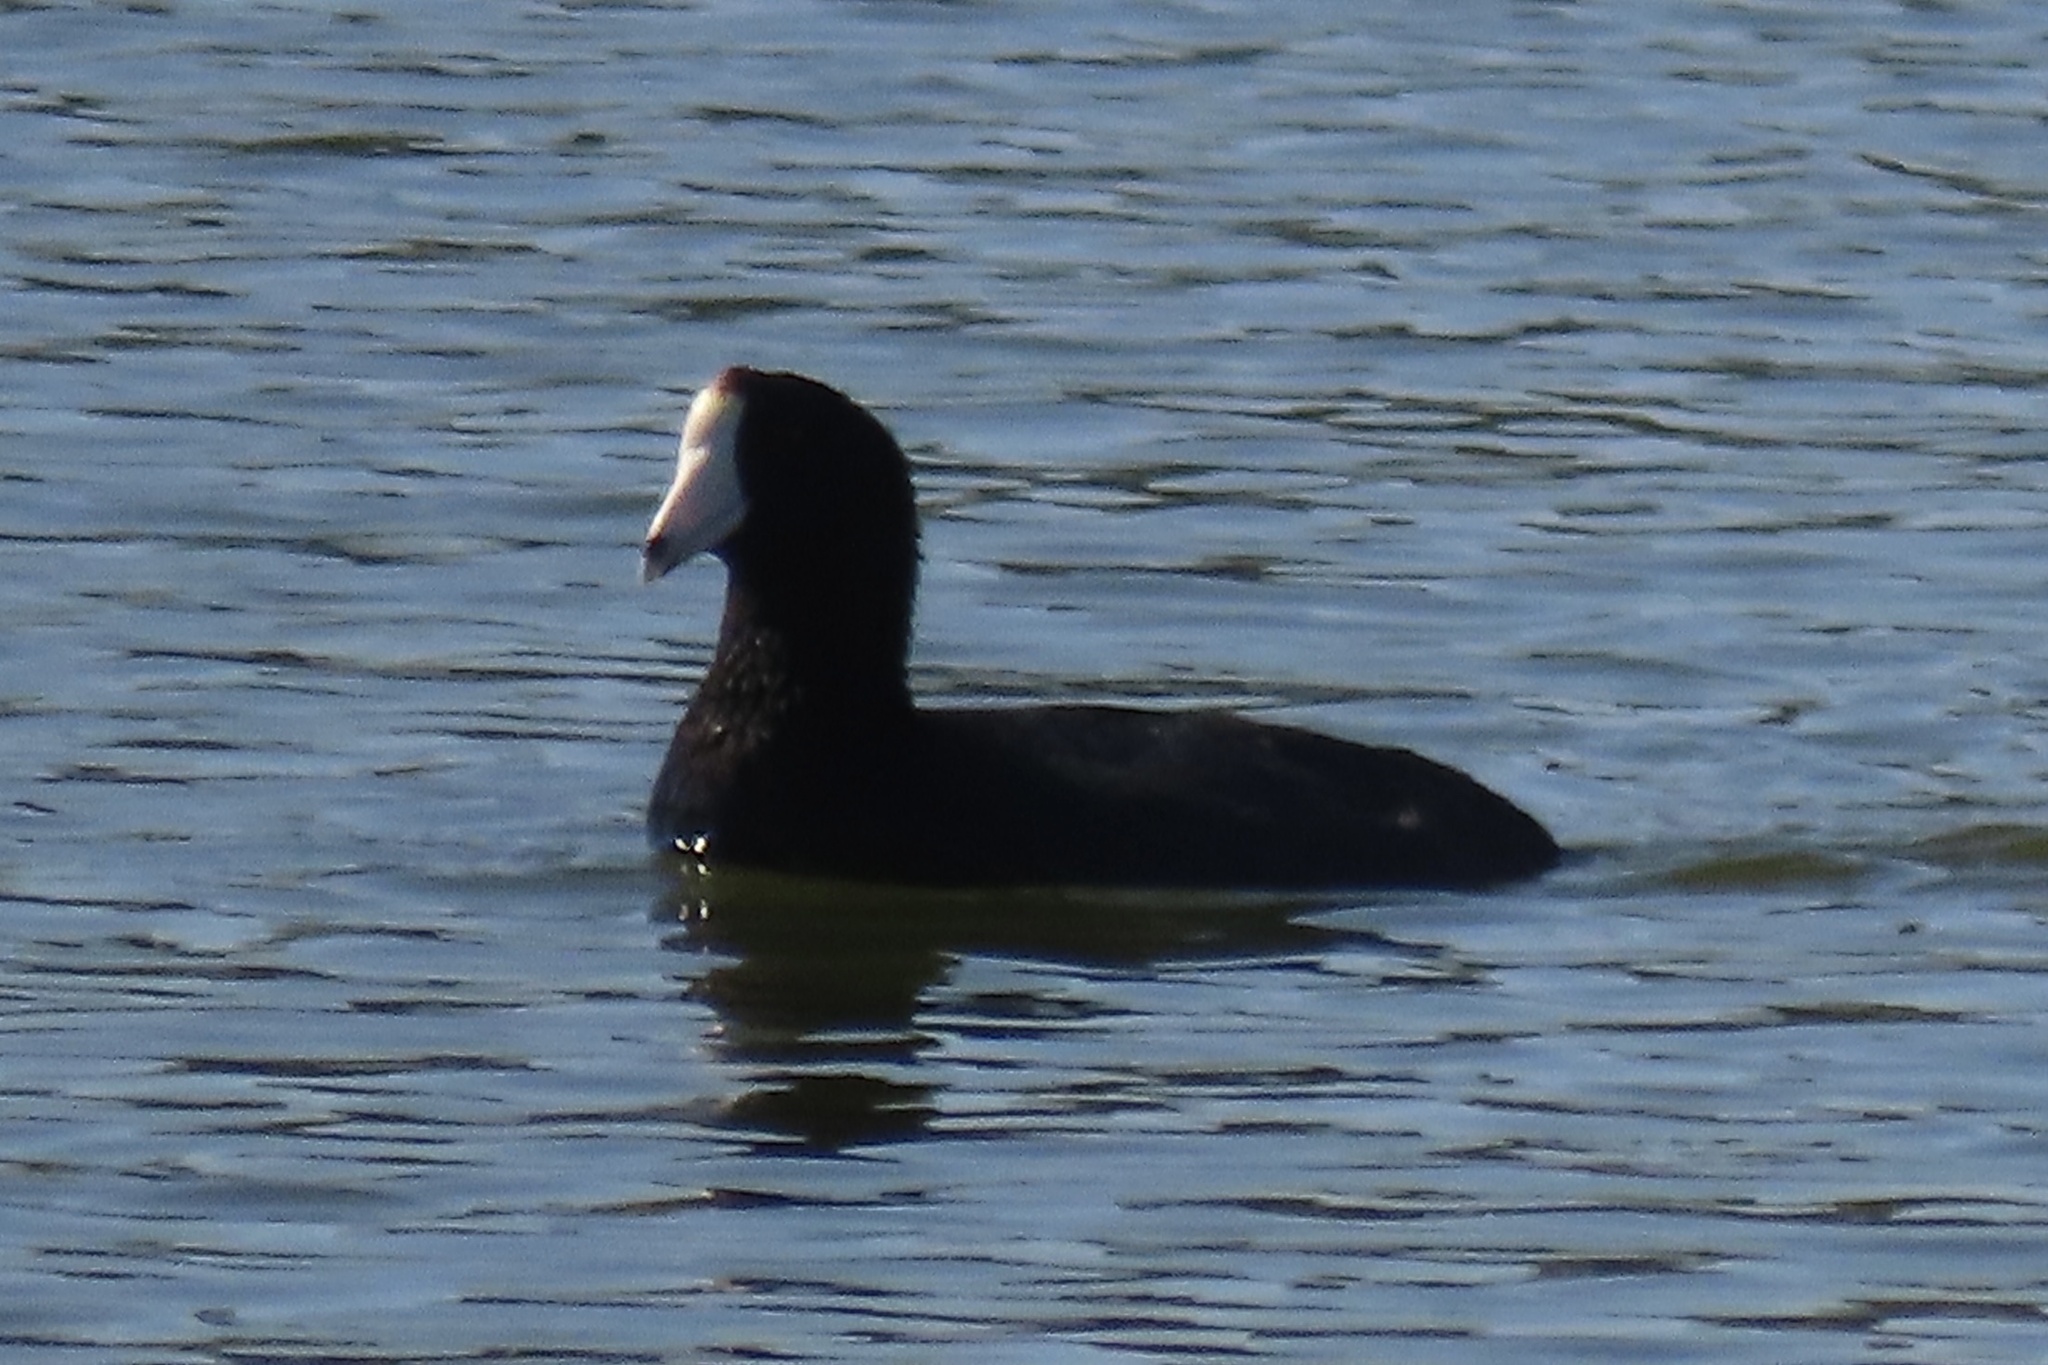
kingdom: Animalia
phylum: Chordata
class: Aves
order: Gruiformes
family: Rallidae
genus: Fulica
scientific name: Fulica americana
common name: American coot
